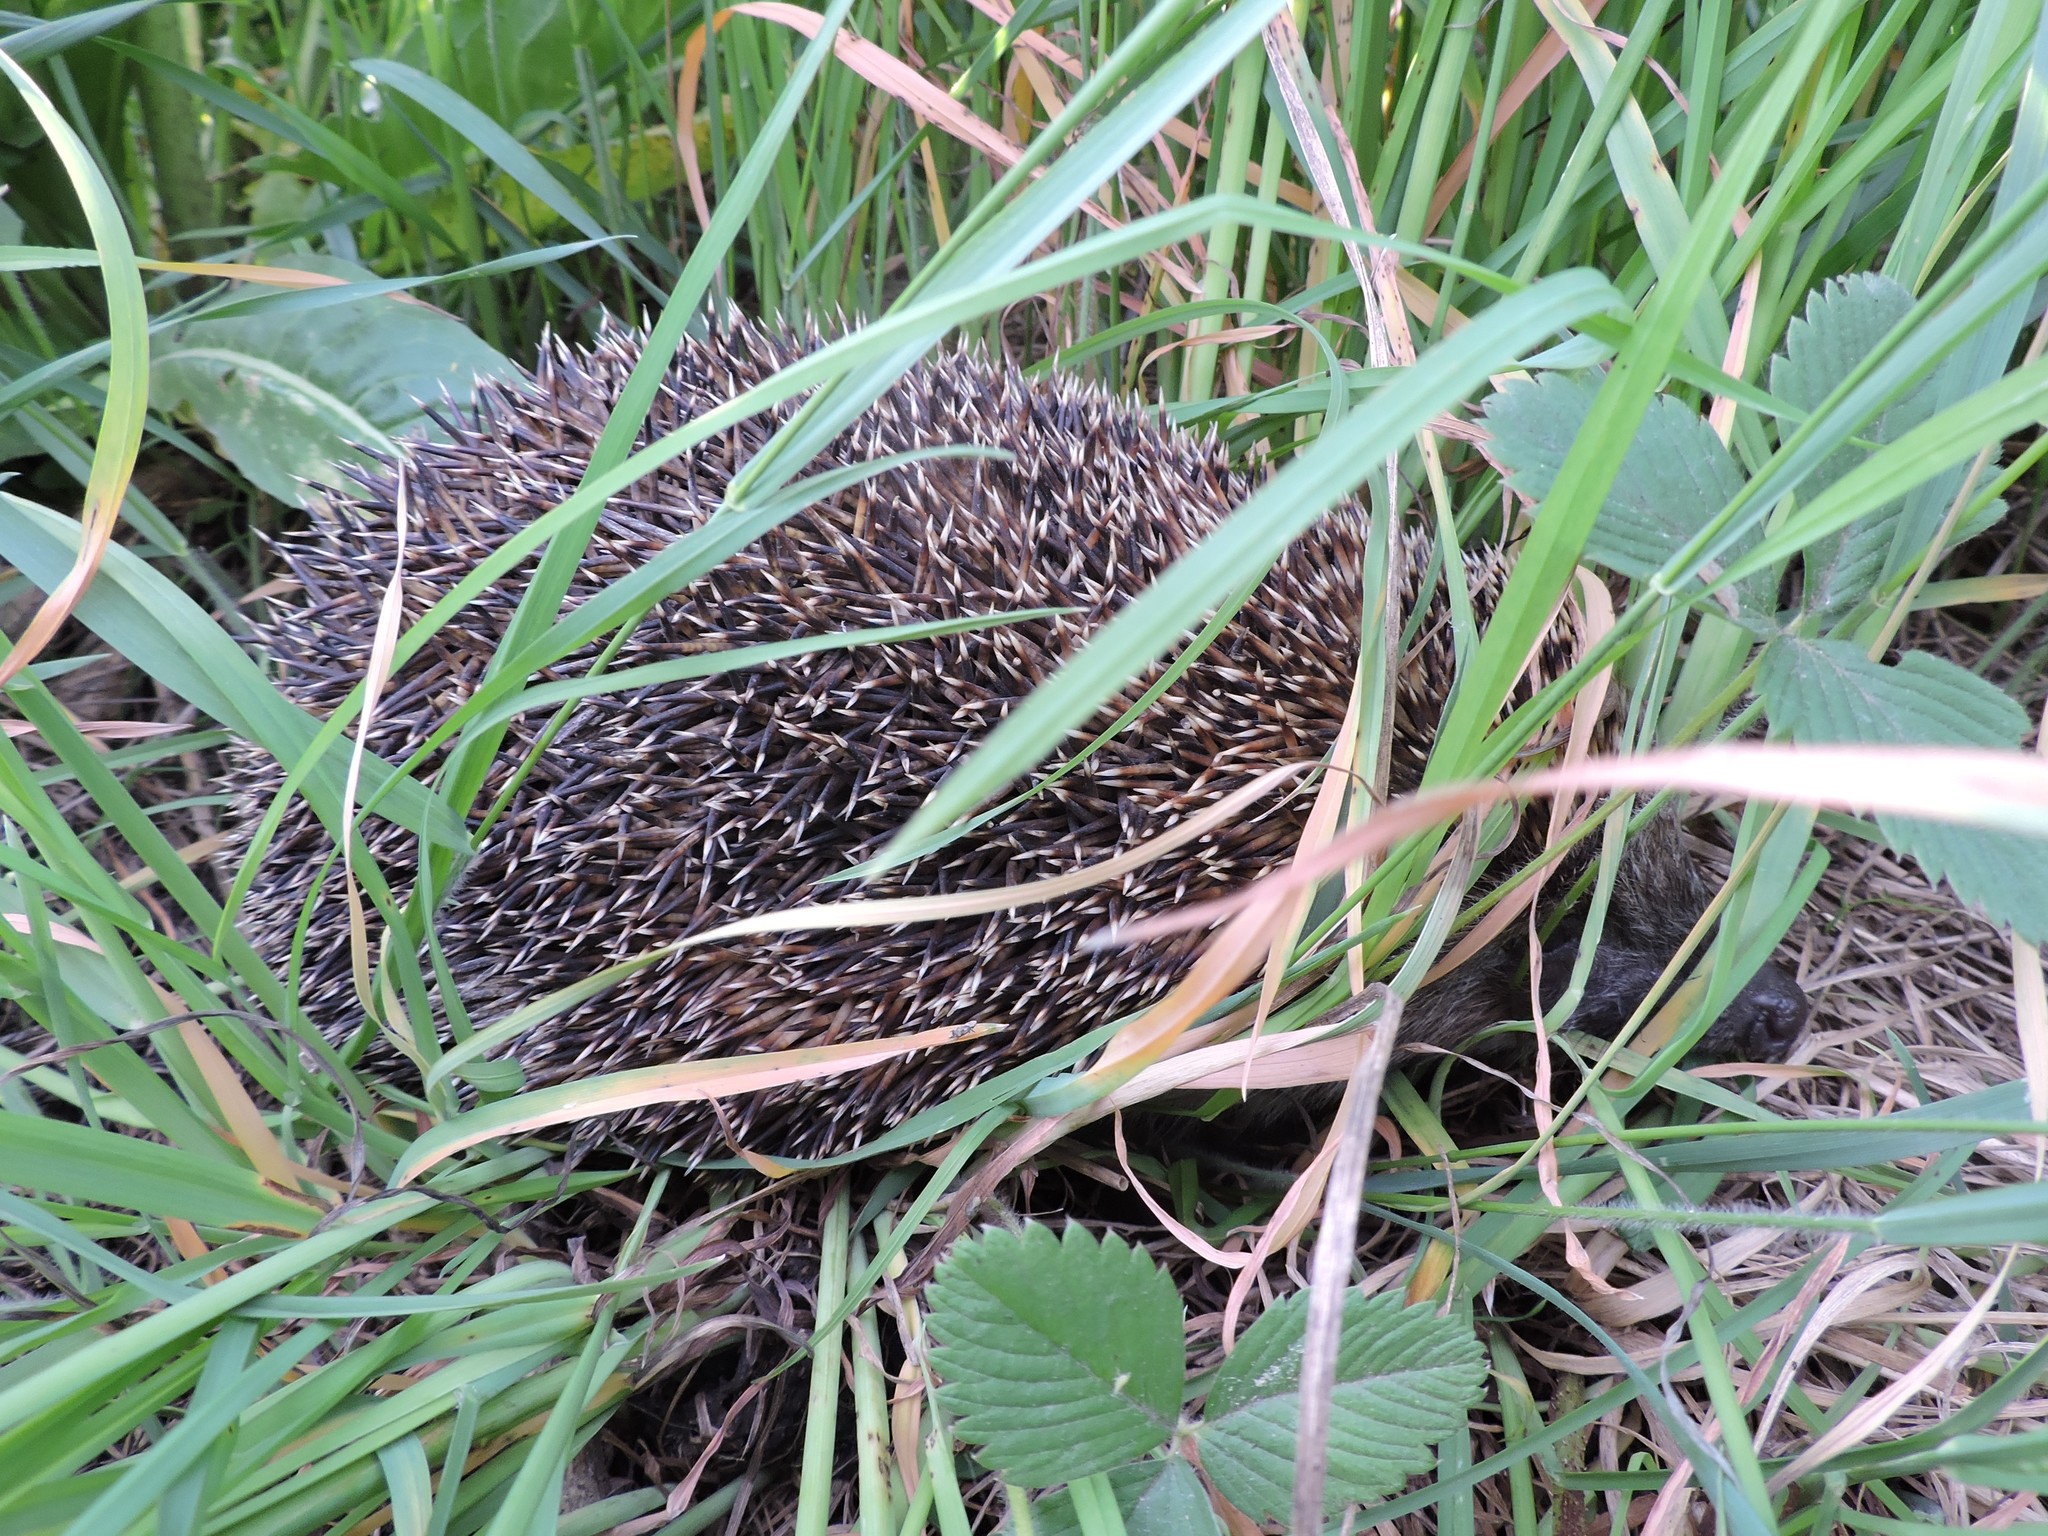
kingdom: Animalia
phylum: Chordata
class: Mammalia
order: Erinaceomorpha
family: Erinaceidae
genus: Erinaceus
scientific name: Erinaceus roumanicus
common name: Northern white-breasted hedgehog
